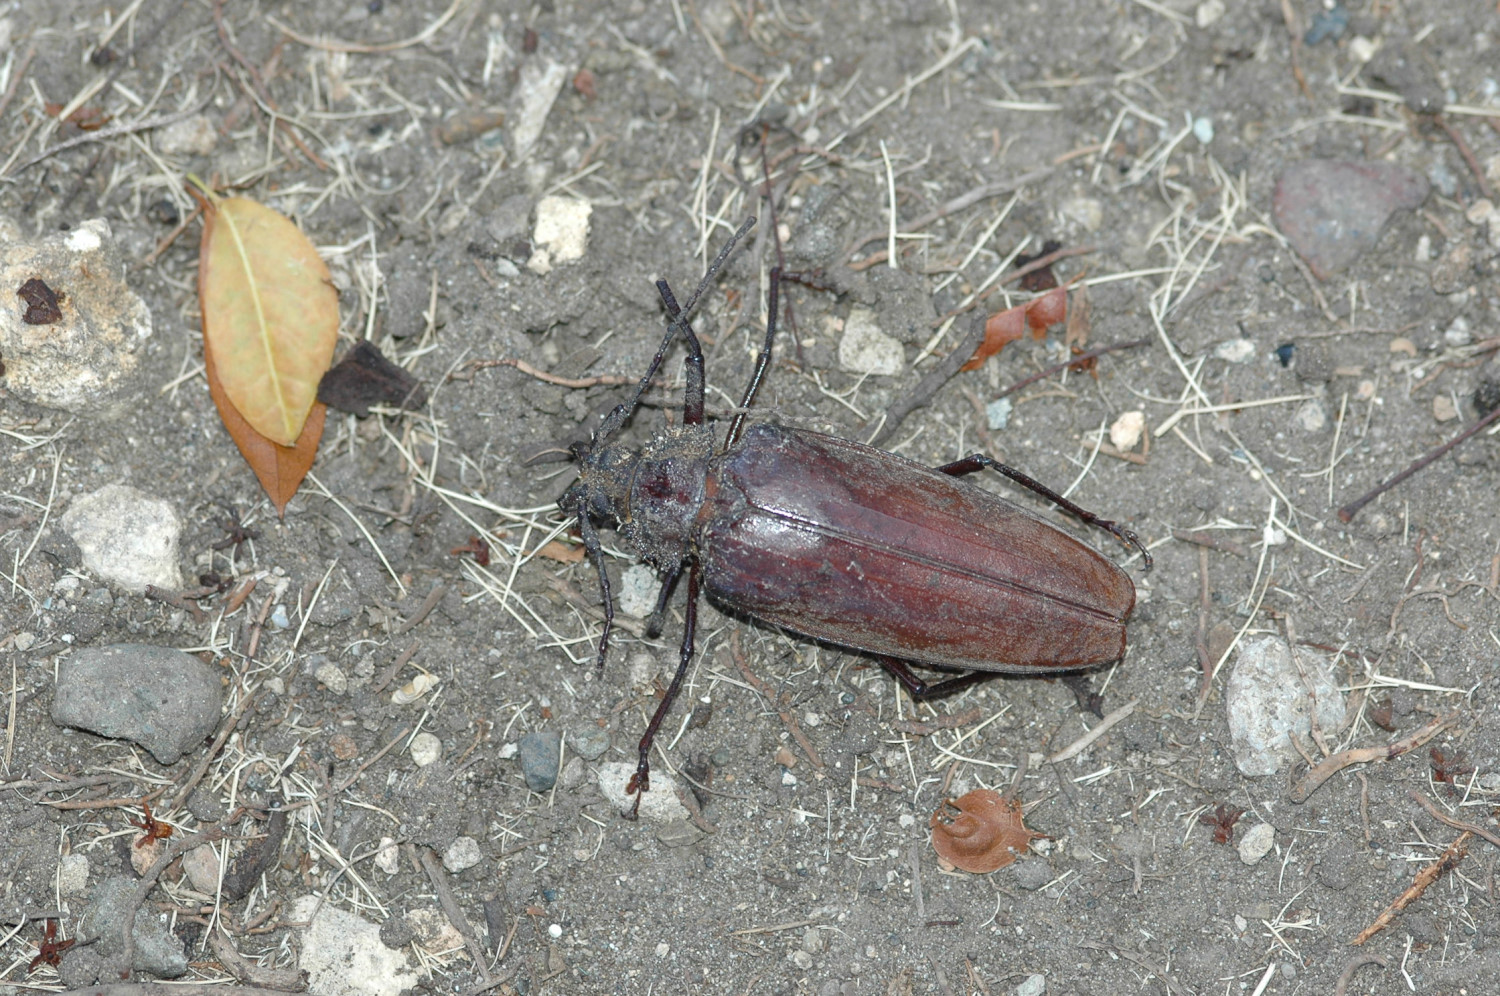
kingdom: Animalia
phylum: Arthropoda
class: Insecta
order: Coleoptera
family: Cerambycidae
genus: Xixuthrus
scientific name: Xixuthrus domingoensis
